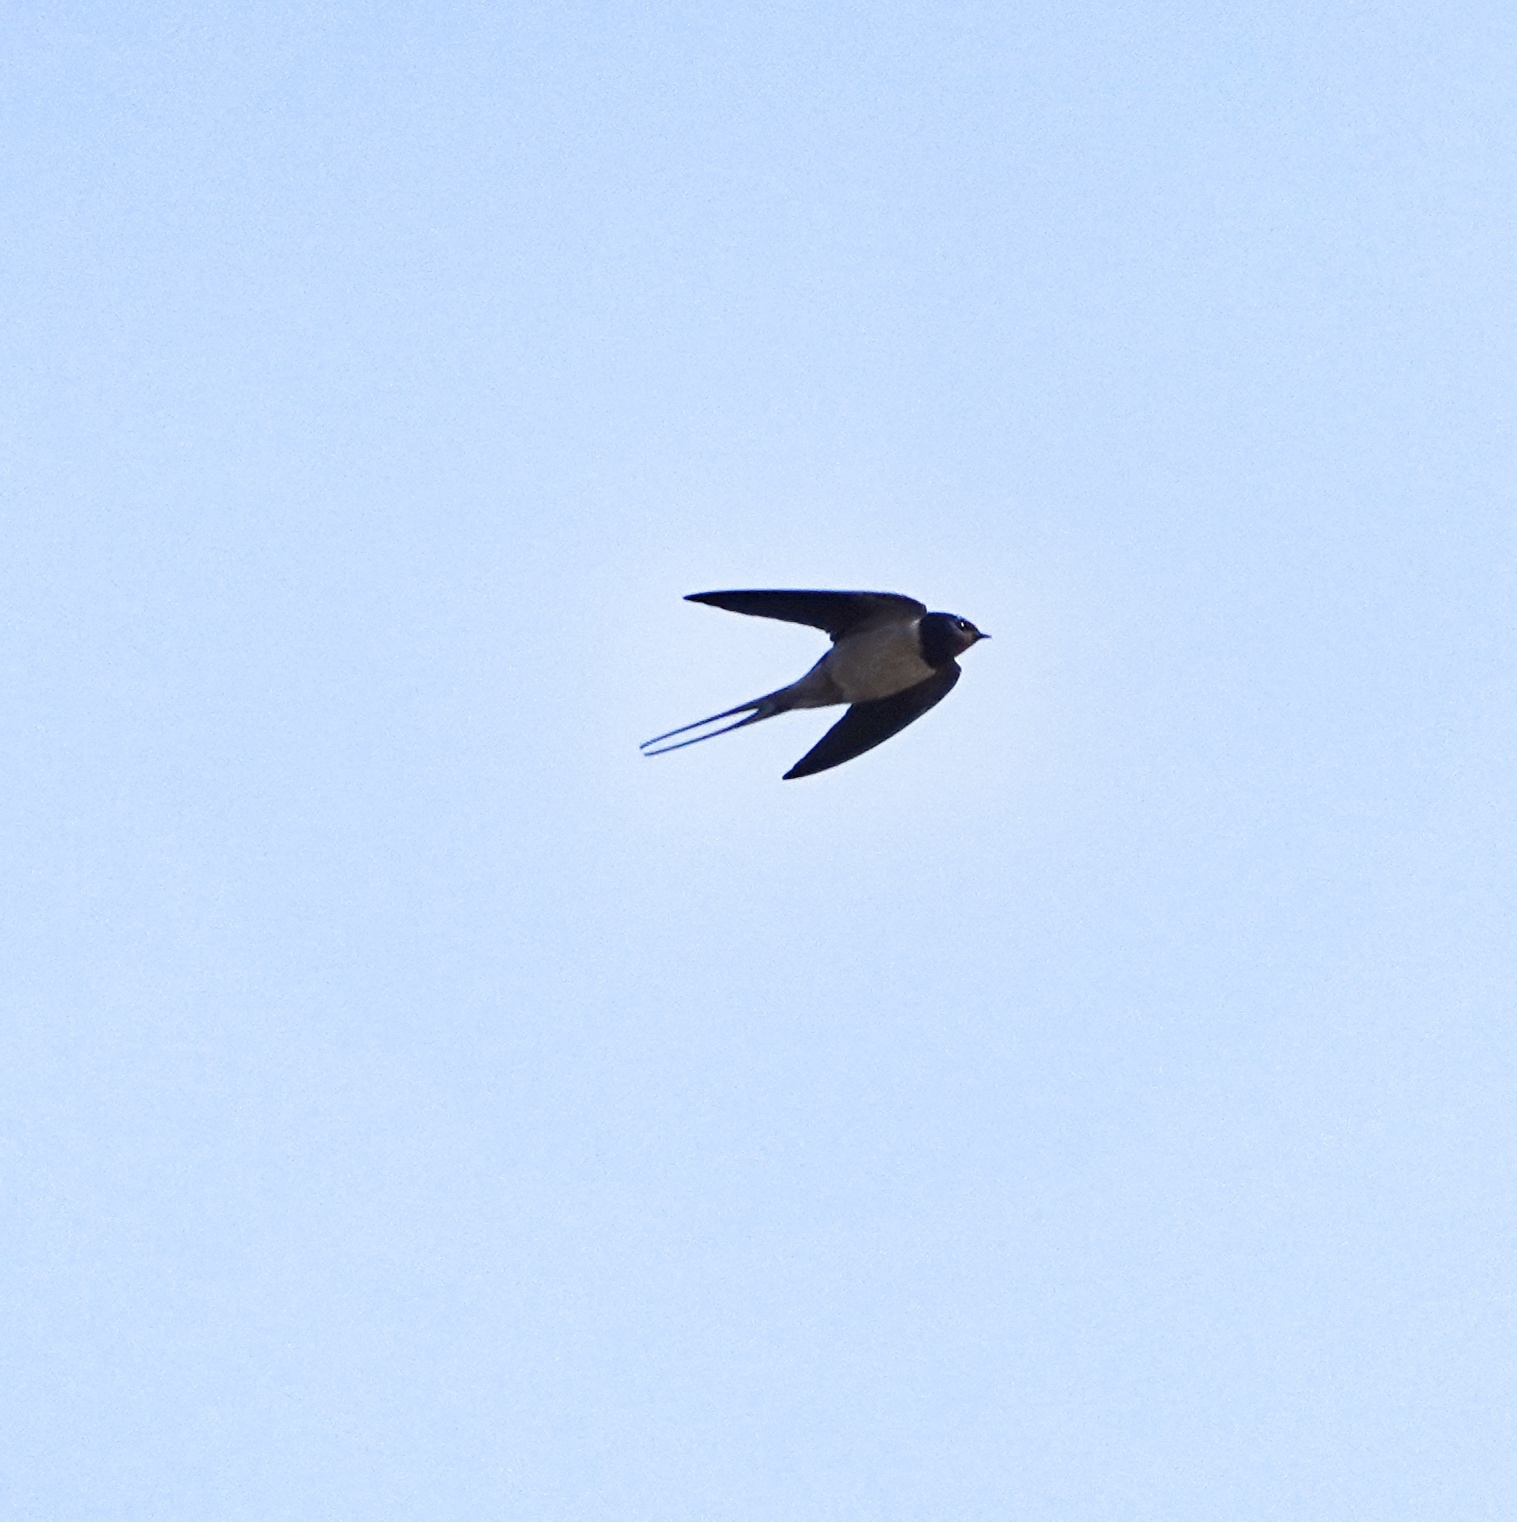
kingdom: Animalia
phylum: Chordata
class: Aves
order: Passeriformes
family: Hirundinidae
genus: Hirundo
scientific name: Hirundo rustica
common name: Barn swallow
